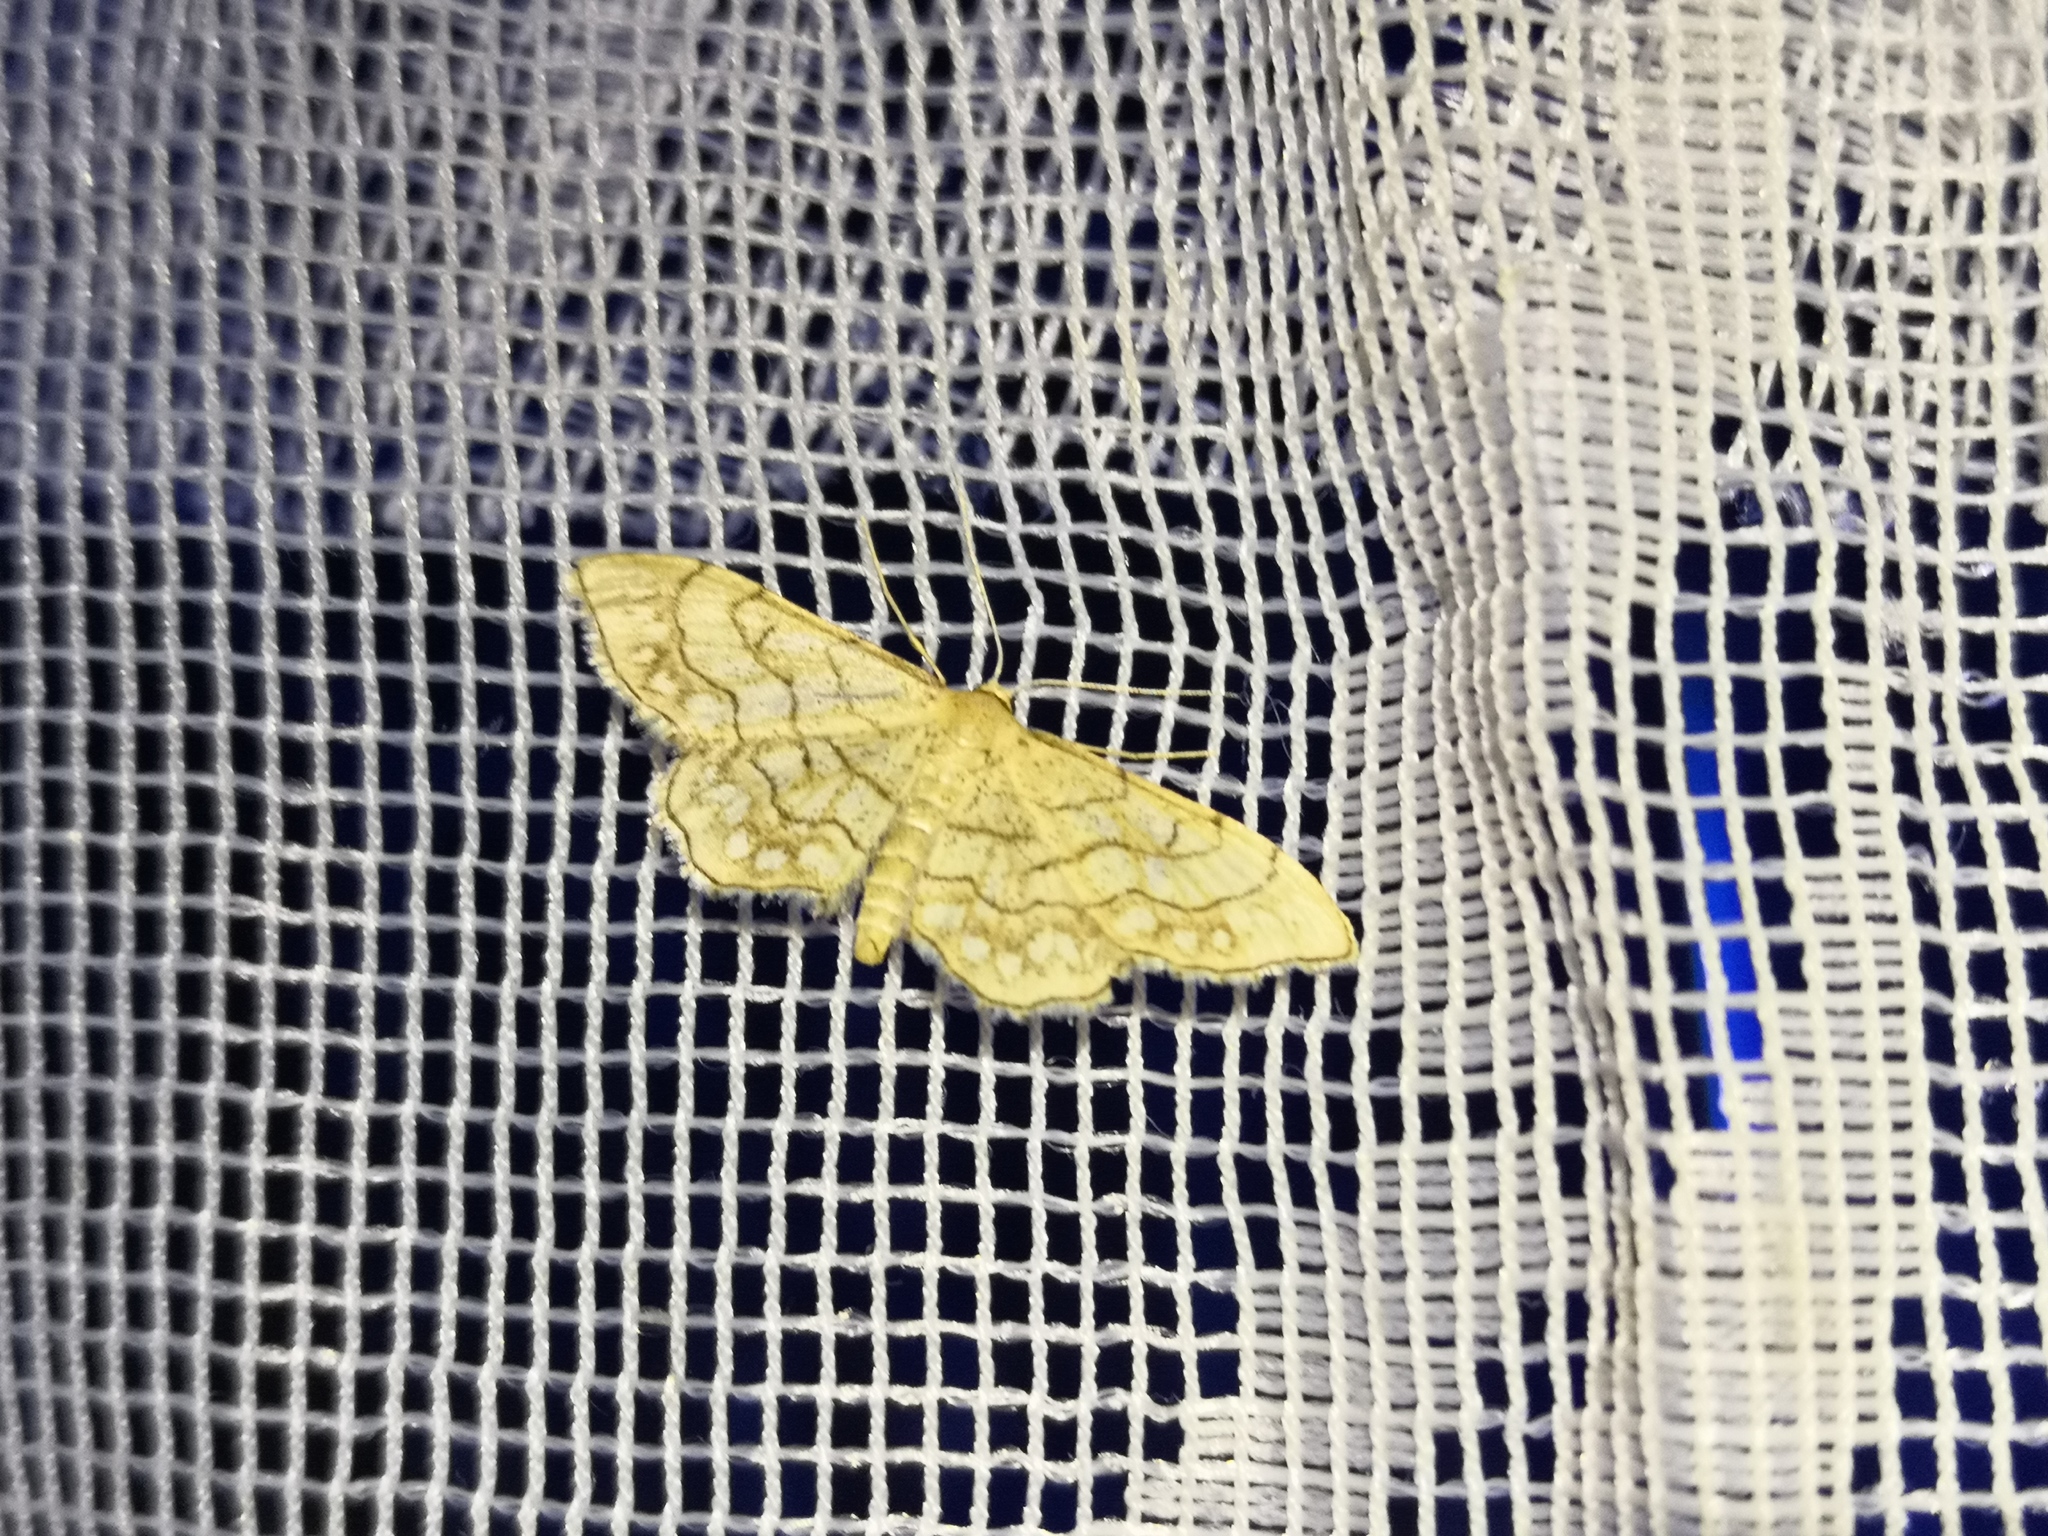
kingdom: Animalia
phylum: Arthropoda
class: Insecta
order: Lepidoptera
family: Geometridae
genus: Idaea
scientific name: Idaea moniliata
